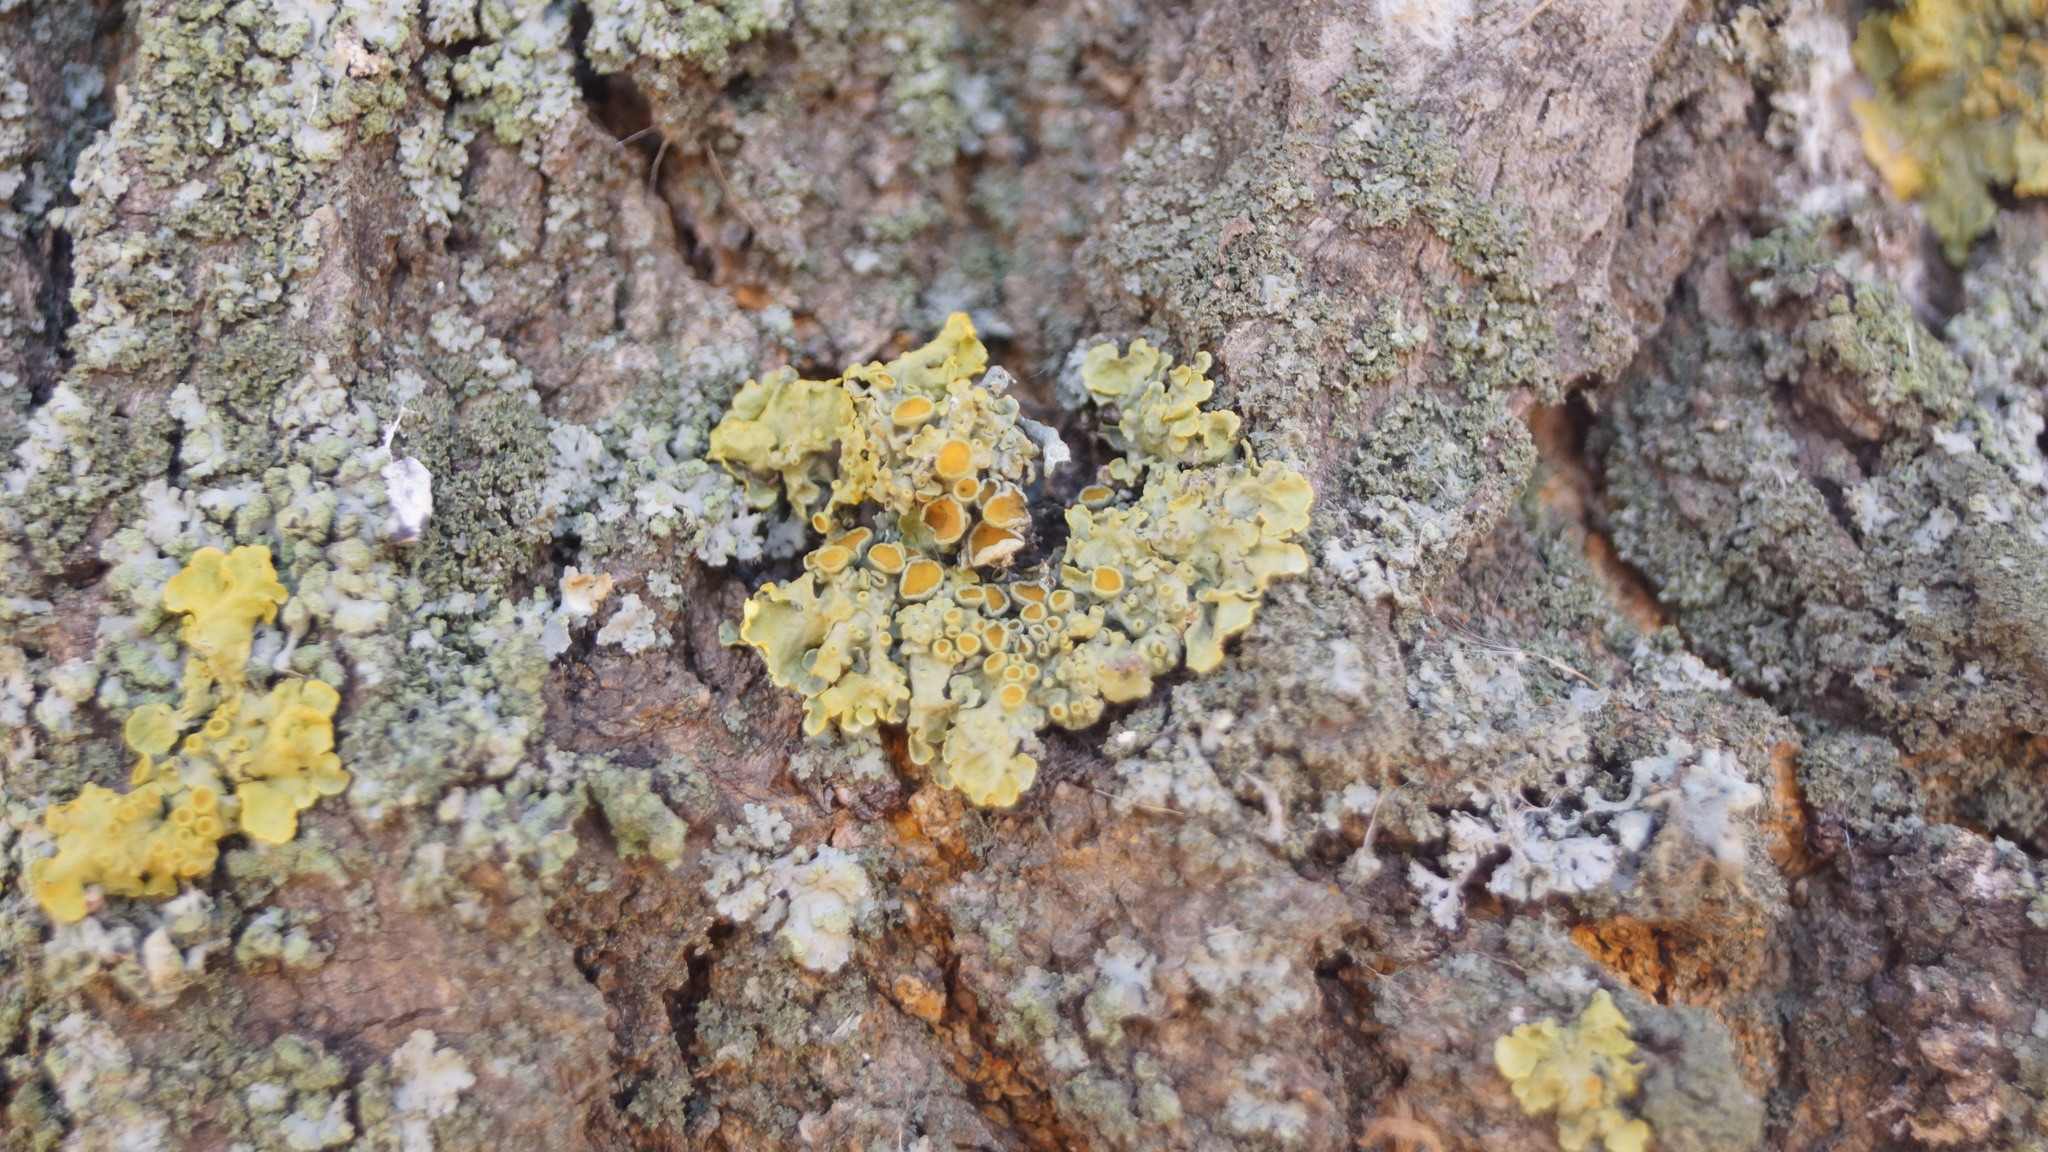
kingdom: Fungi
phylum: Ascomycota
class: Lecanoromycetes
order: Teloschistales
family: Teloschistaceae
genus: Xanthoria
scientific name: Xanthoria parietina
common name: Common orange lichen
